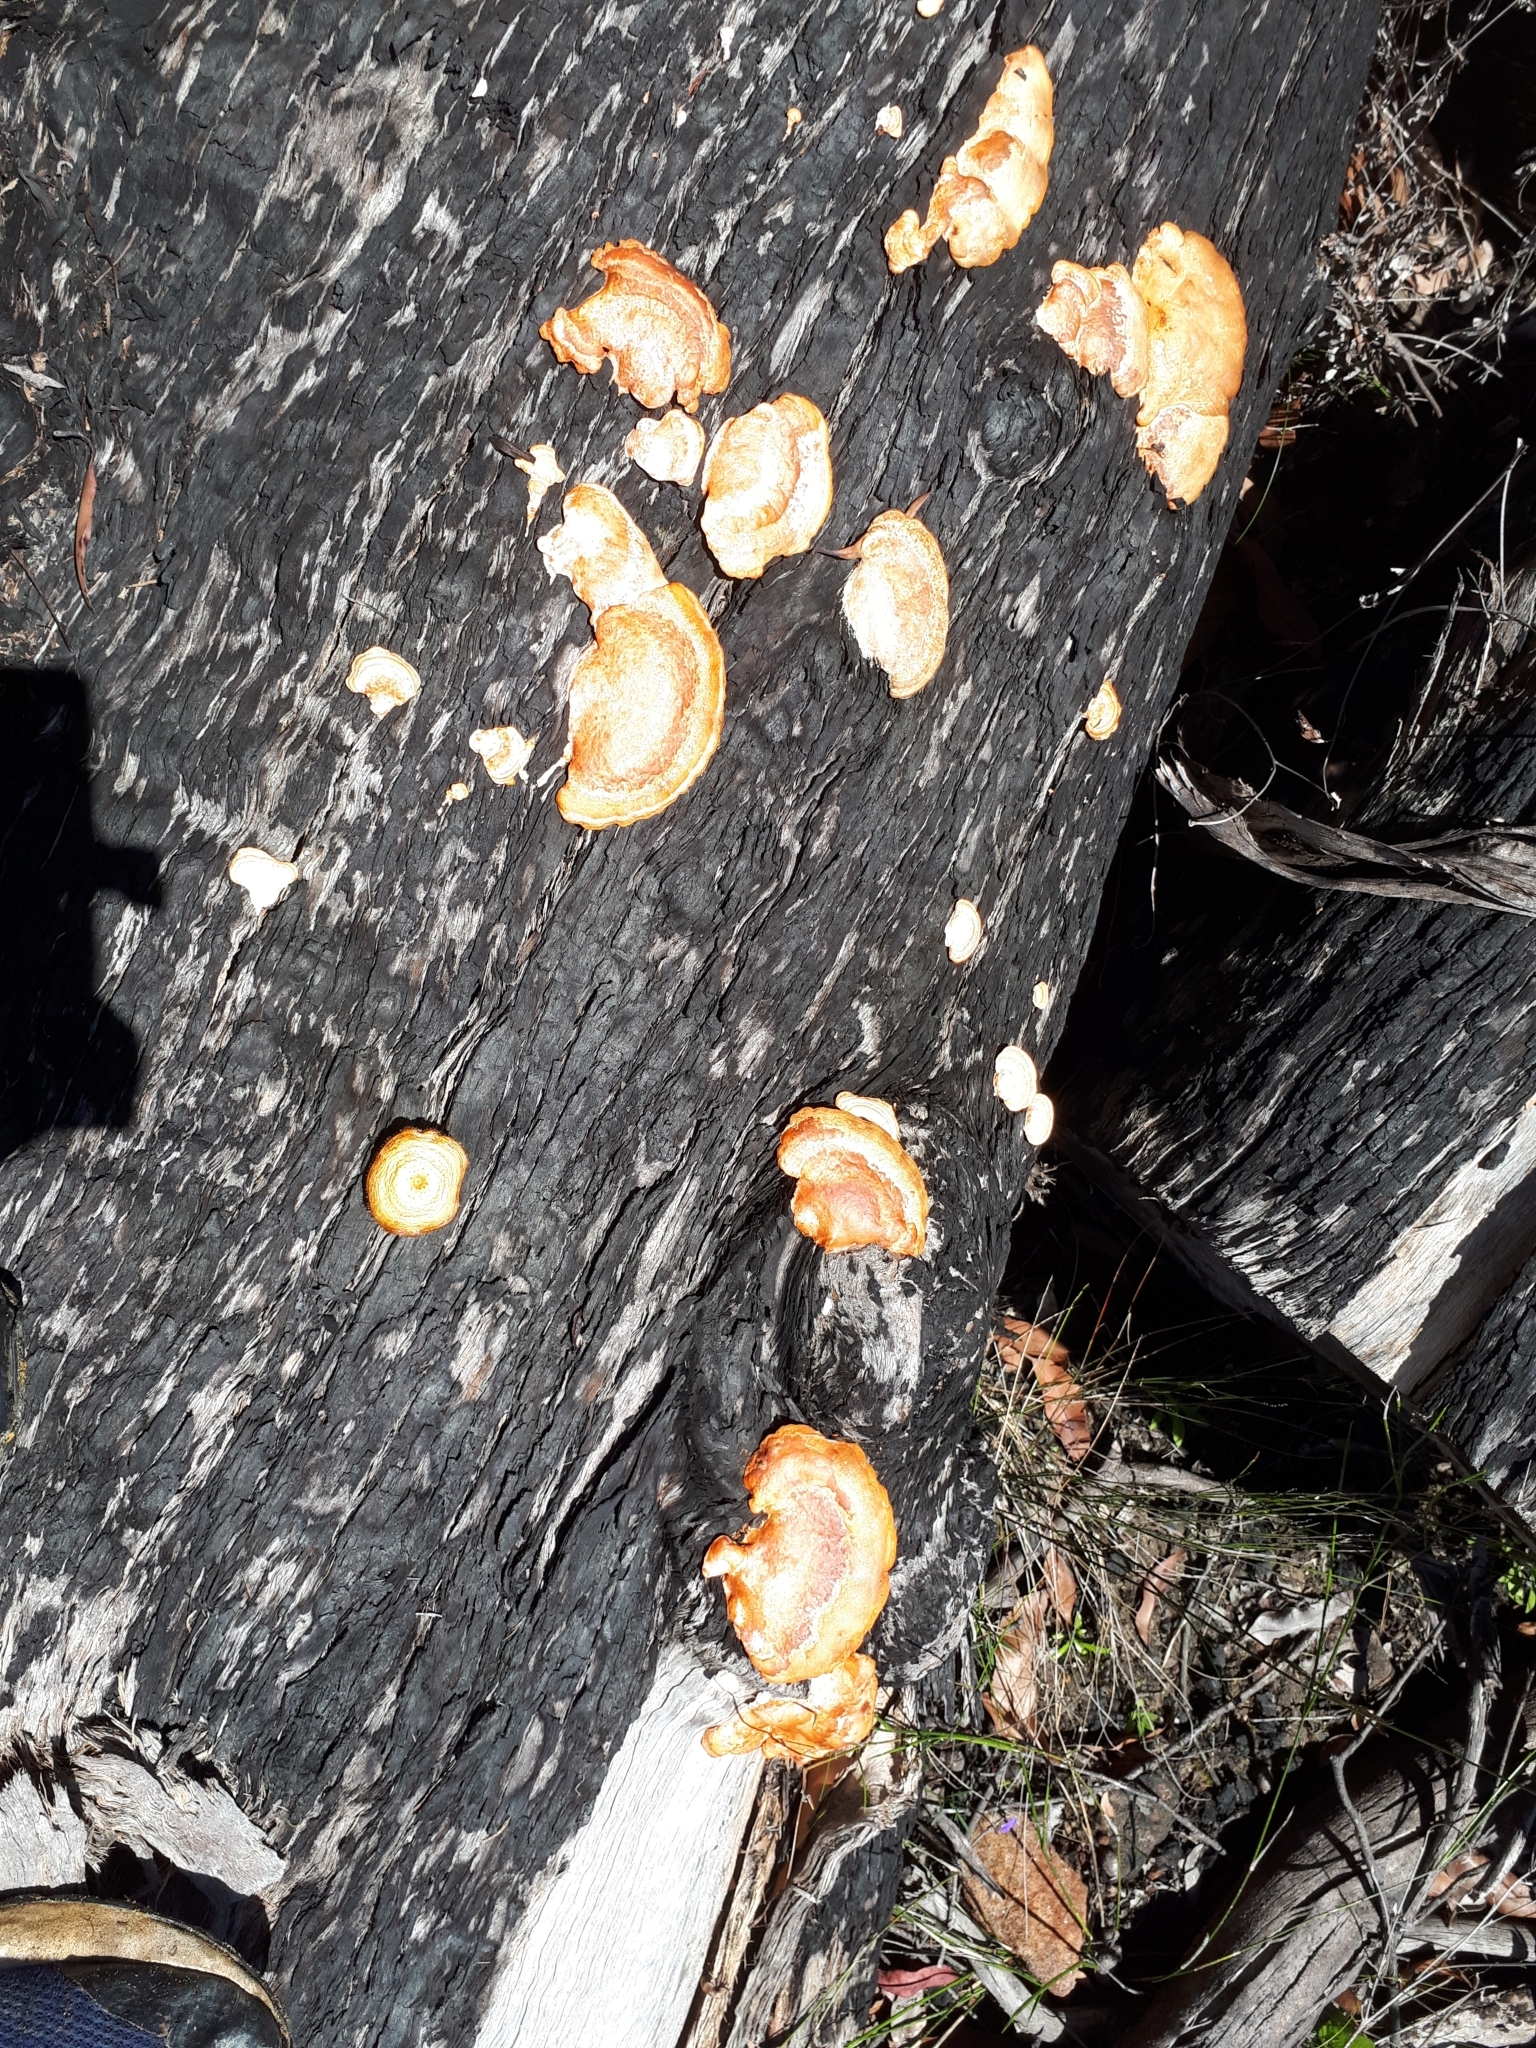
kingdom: Fungi
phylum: Basidiomycota
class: Agaricomycetes
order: Polyporales
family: Polyporaceae
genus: Trametes
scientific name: Trametes coccinea
